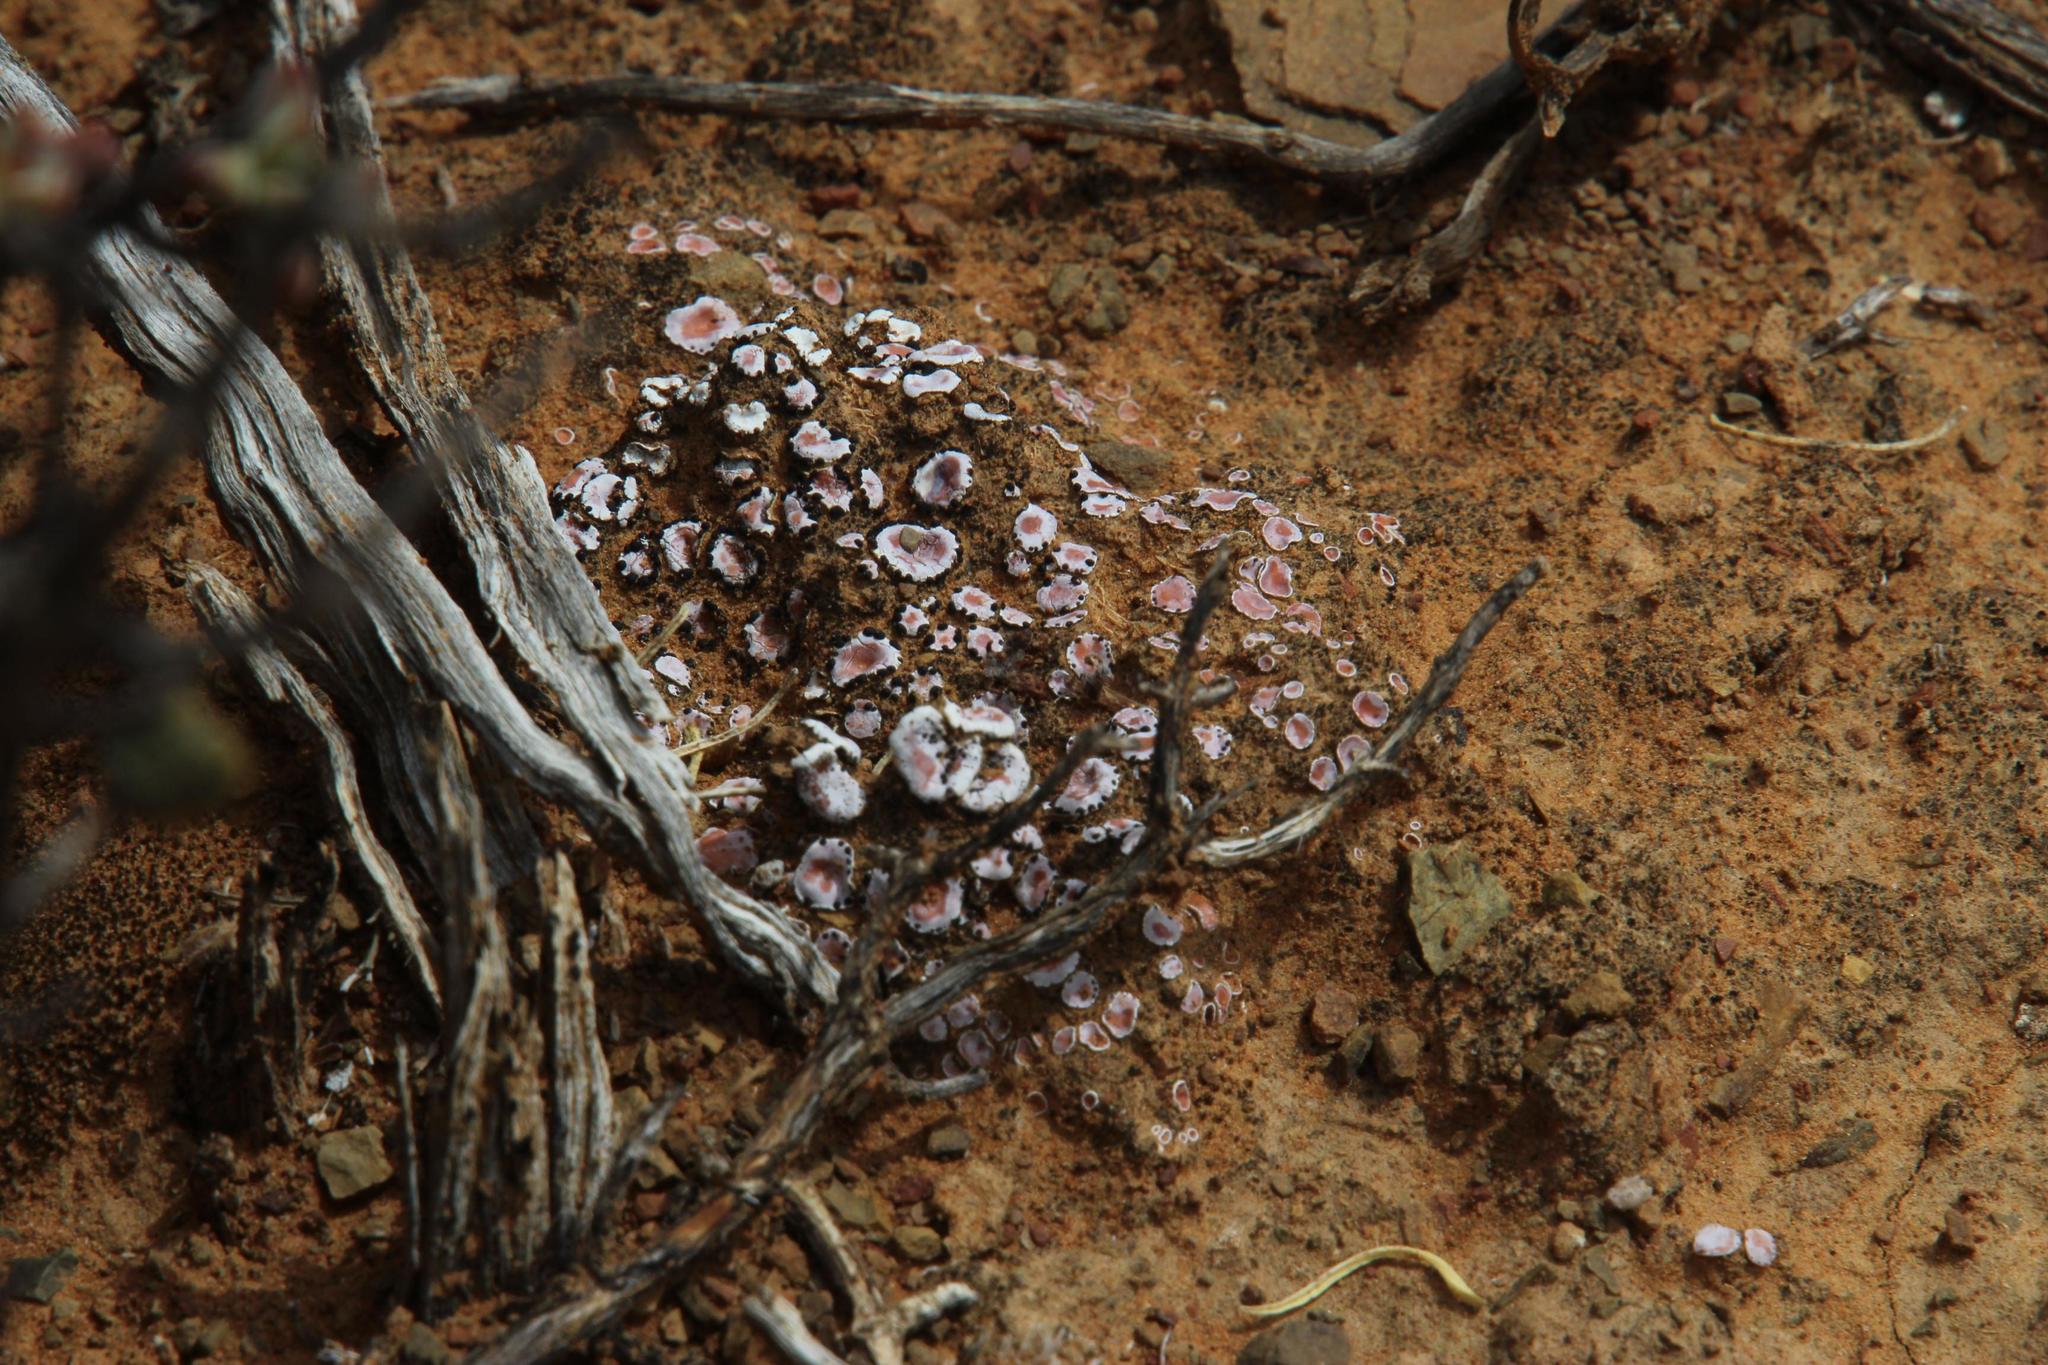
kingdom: Fungi
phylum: Ascomycota
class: Lecanoromycetes
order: Lecanorales
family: Psoraceae
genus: Psora
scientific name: Psora crenata
